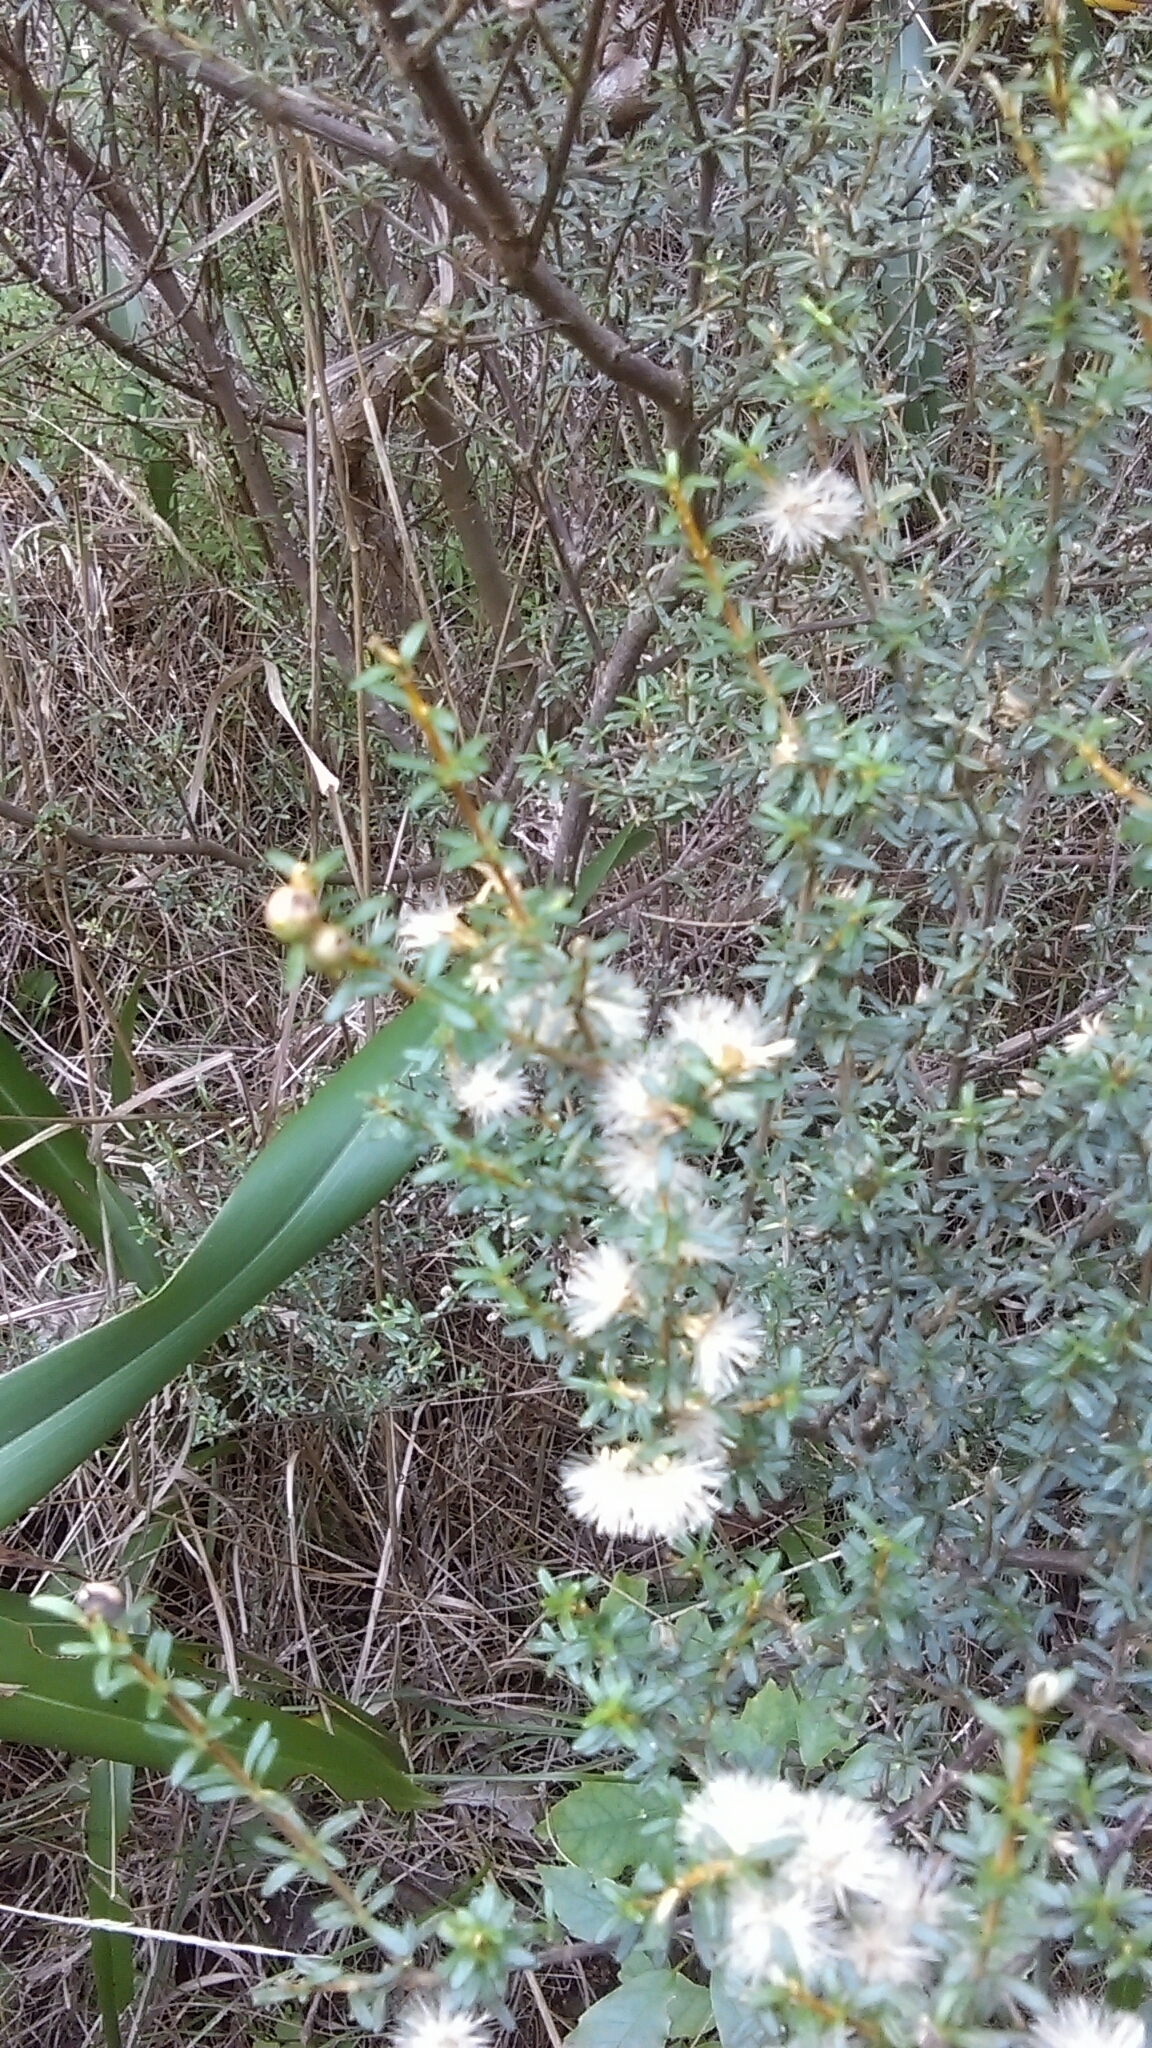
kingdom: Plantae
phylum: Tracheophyta
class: Magnoliopsida
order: Asterales
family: Asteraceae
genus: Olearia
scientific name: Olearia solandri
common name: Coastal daisybush
